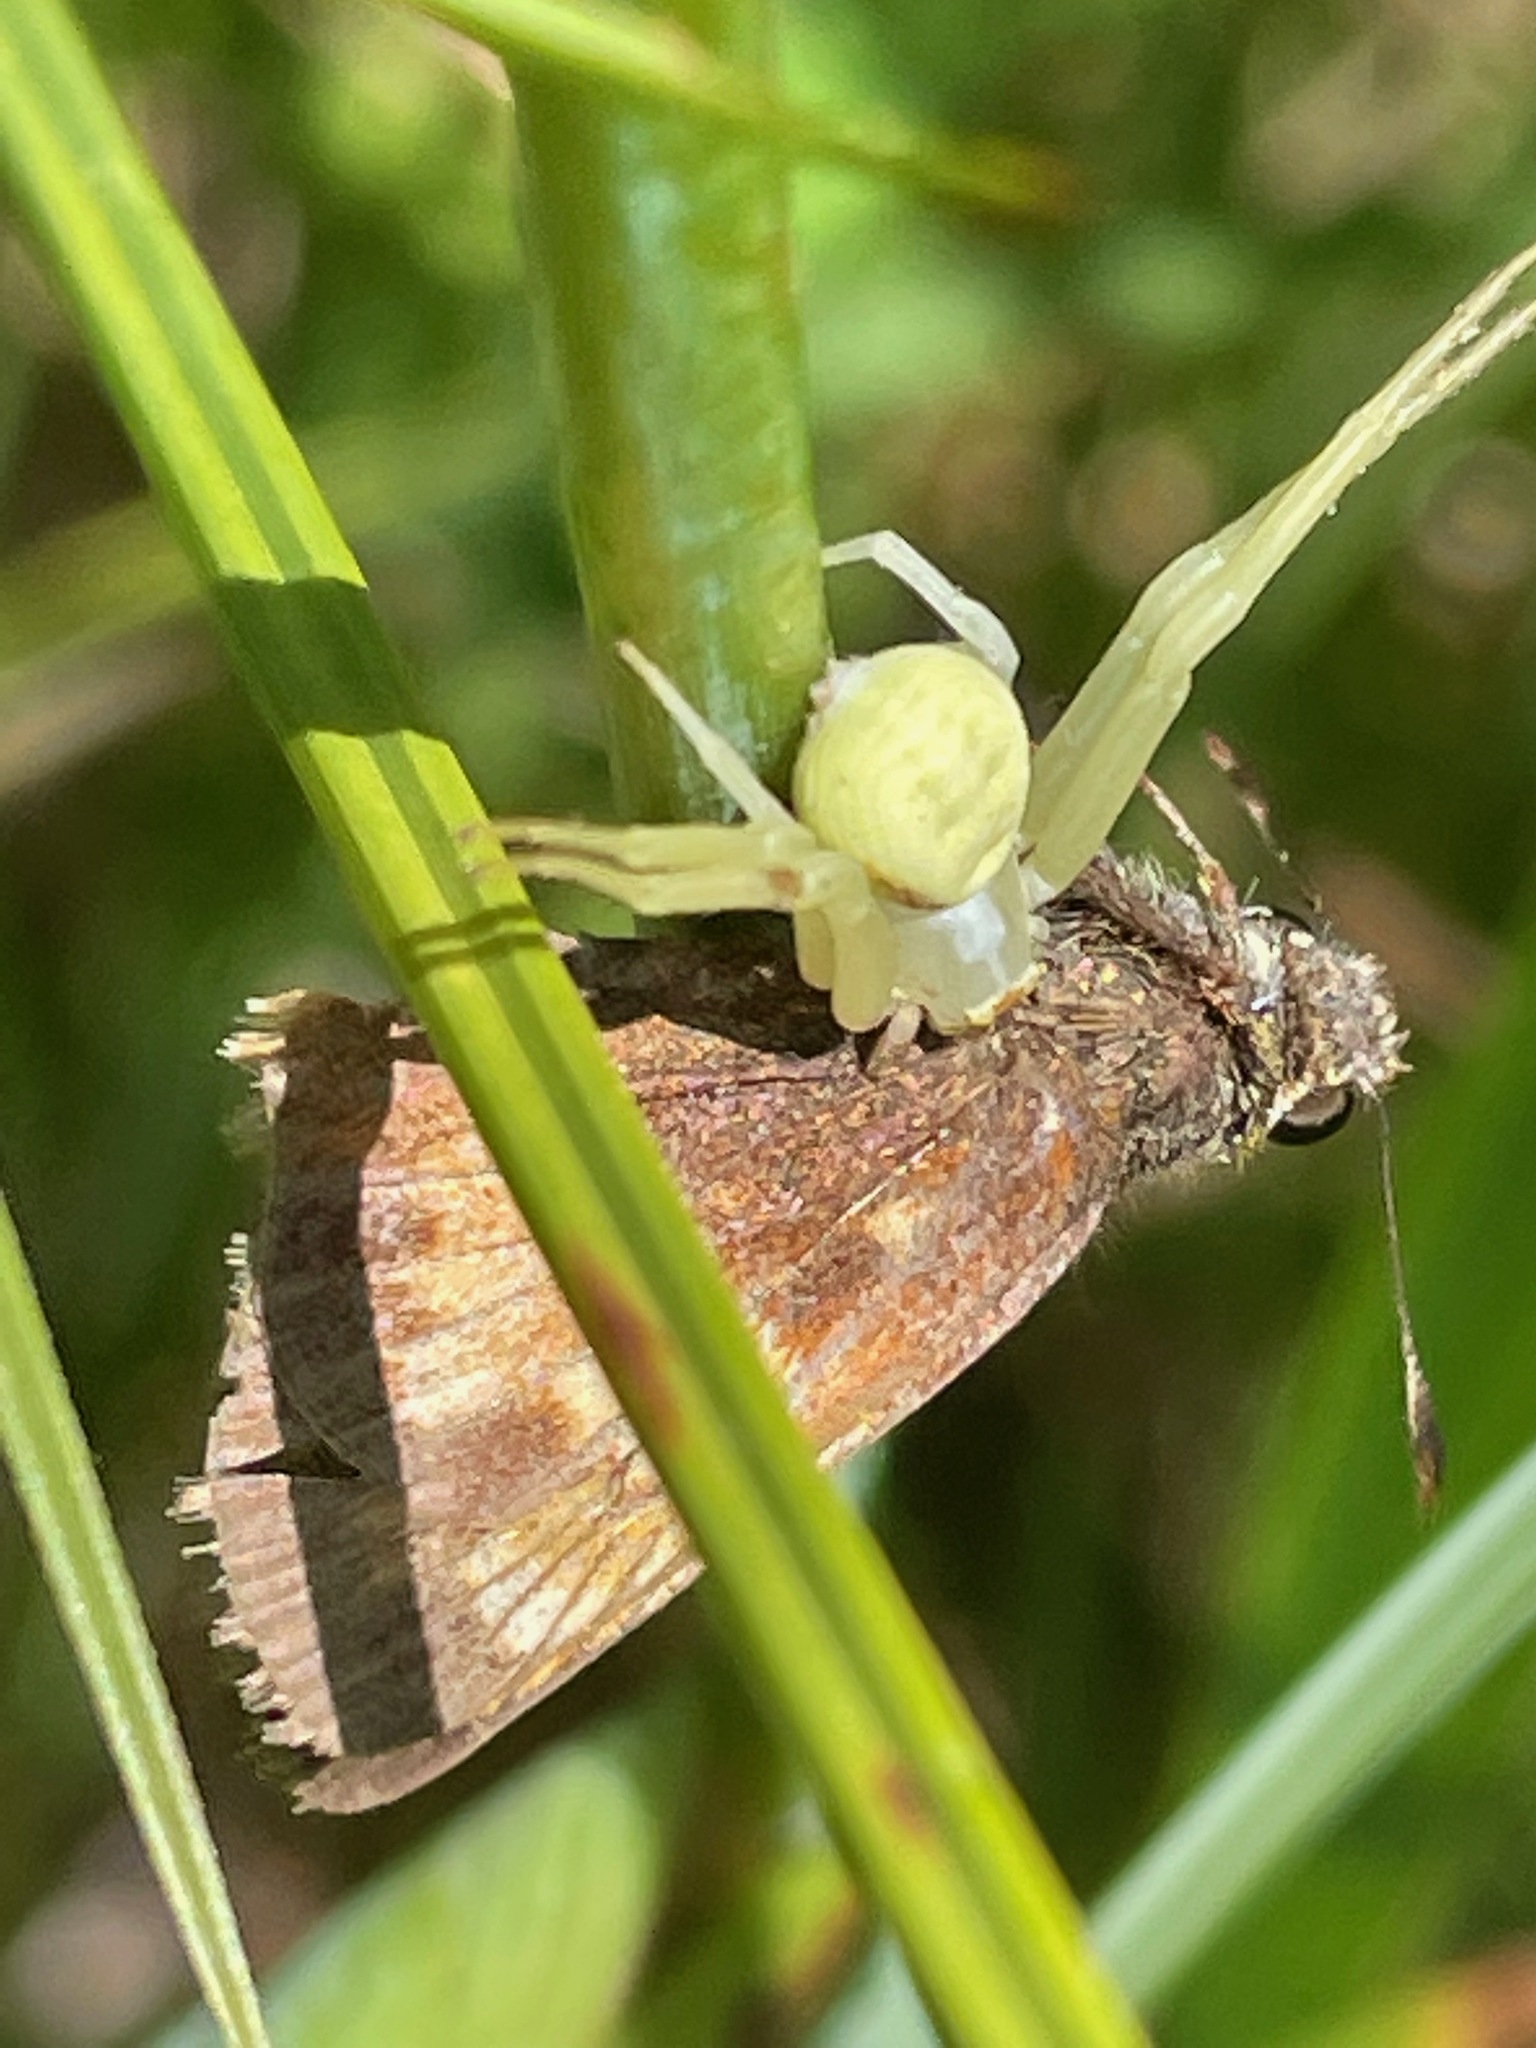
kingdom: Animalia
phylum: Arthropoda
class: Insecta
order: Lepidoptera
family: Hesperiidae
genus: Lon
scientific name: Lon hobomok
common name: Hobomok skipper
